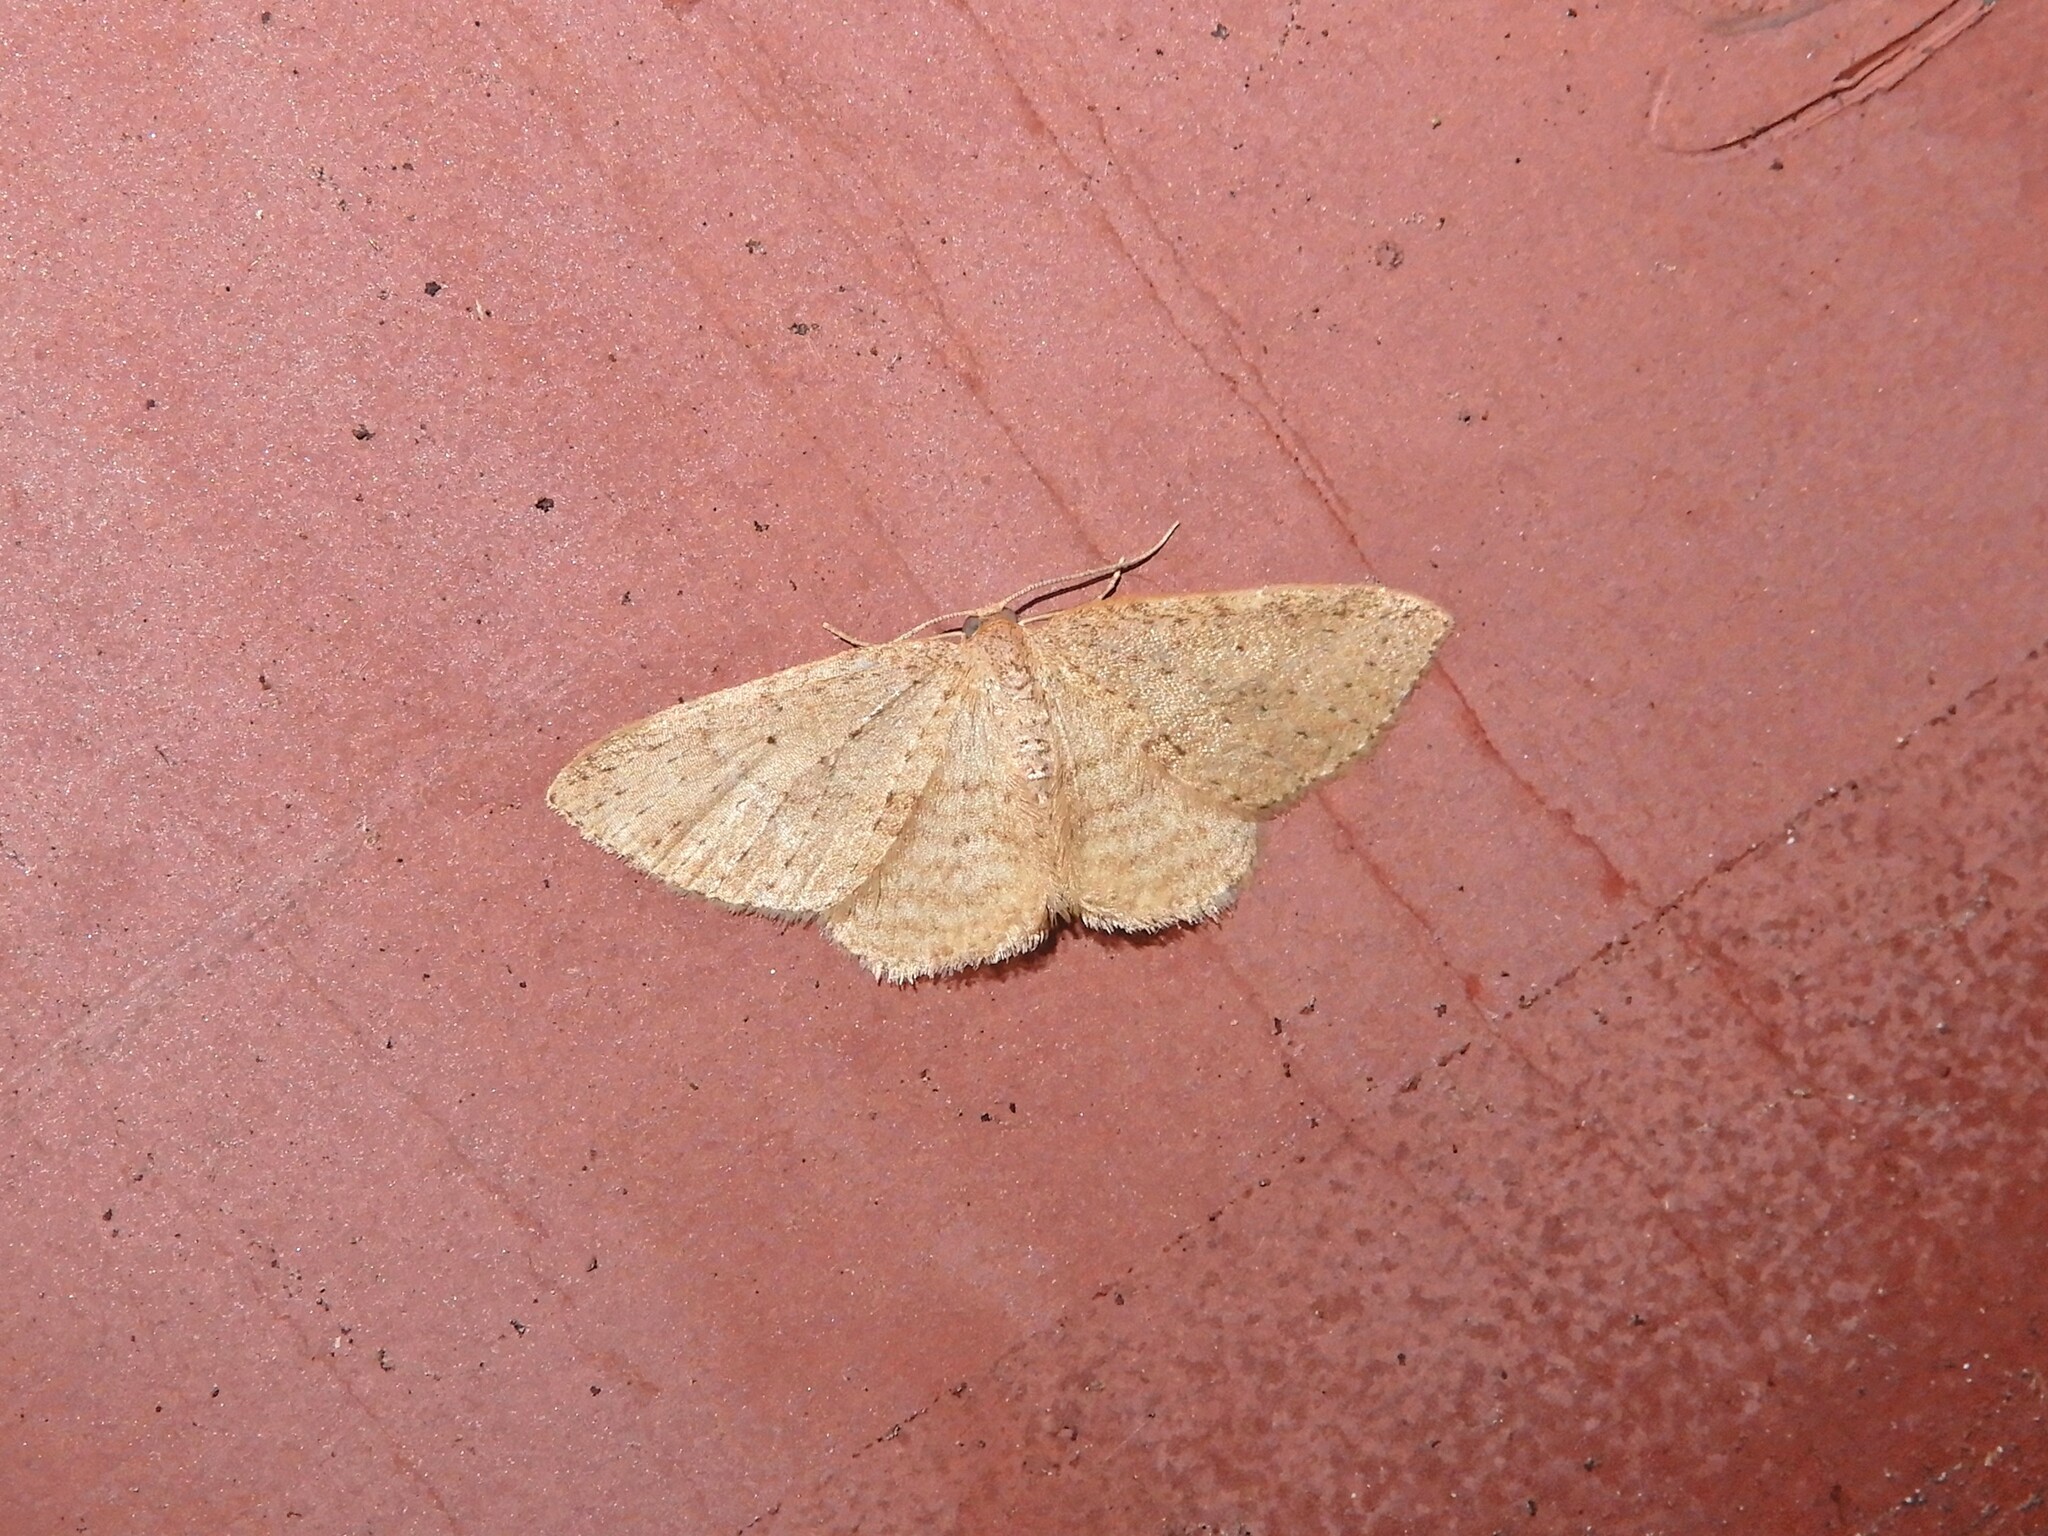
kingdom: Animalia
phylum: Arthropoda
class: Insecta
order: Lepidoptera
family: Geometridae
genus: Poecilasthena
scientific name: Poecilasthena schistaria
